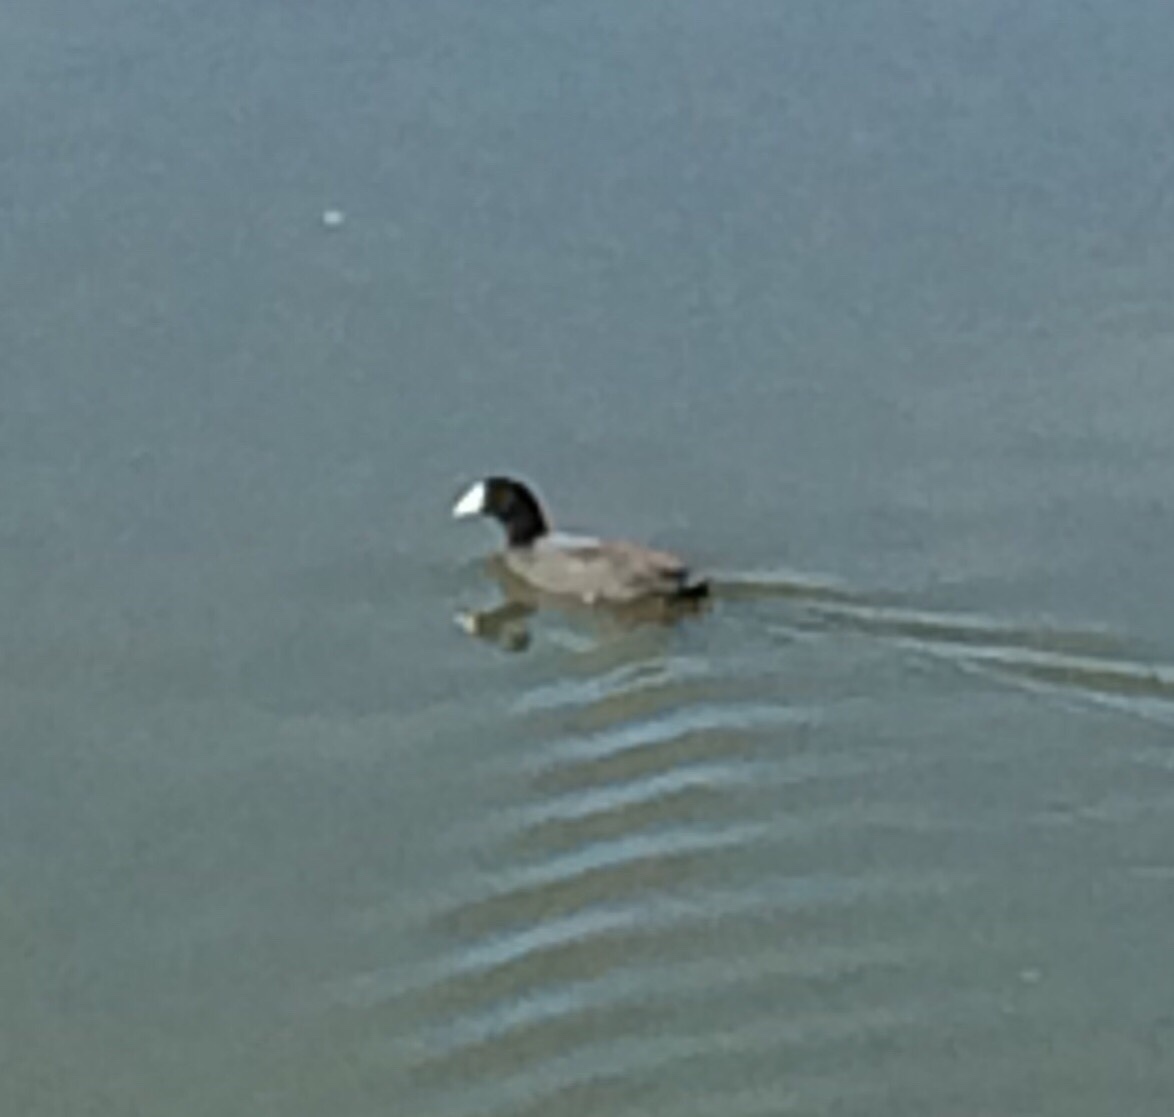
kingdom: Animalia
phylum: Chordata
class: Aves
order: Gruiformes
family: Rallidae
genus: Fulica
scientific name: Fulica americana
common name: American coot
